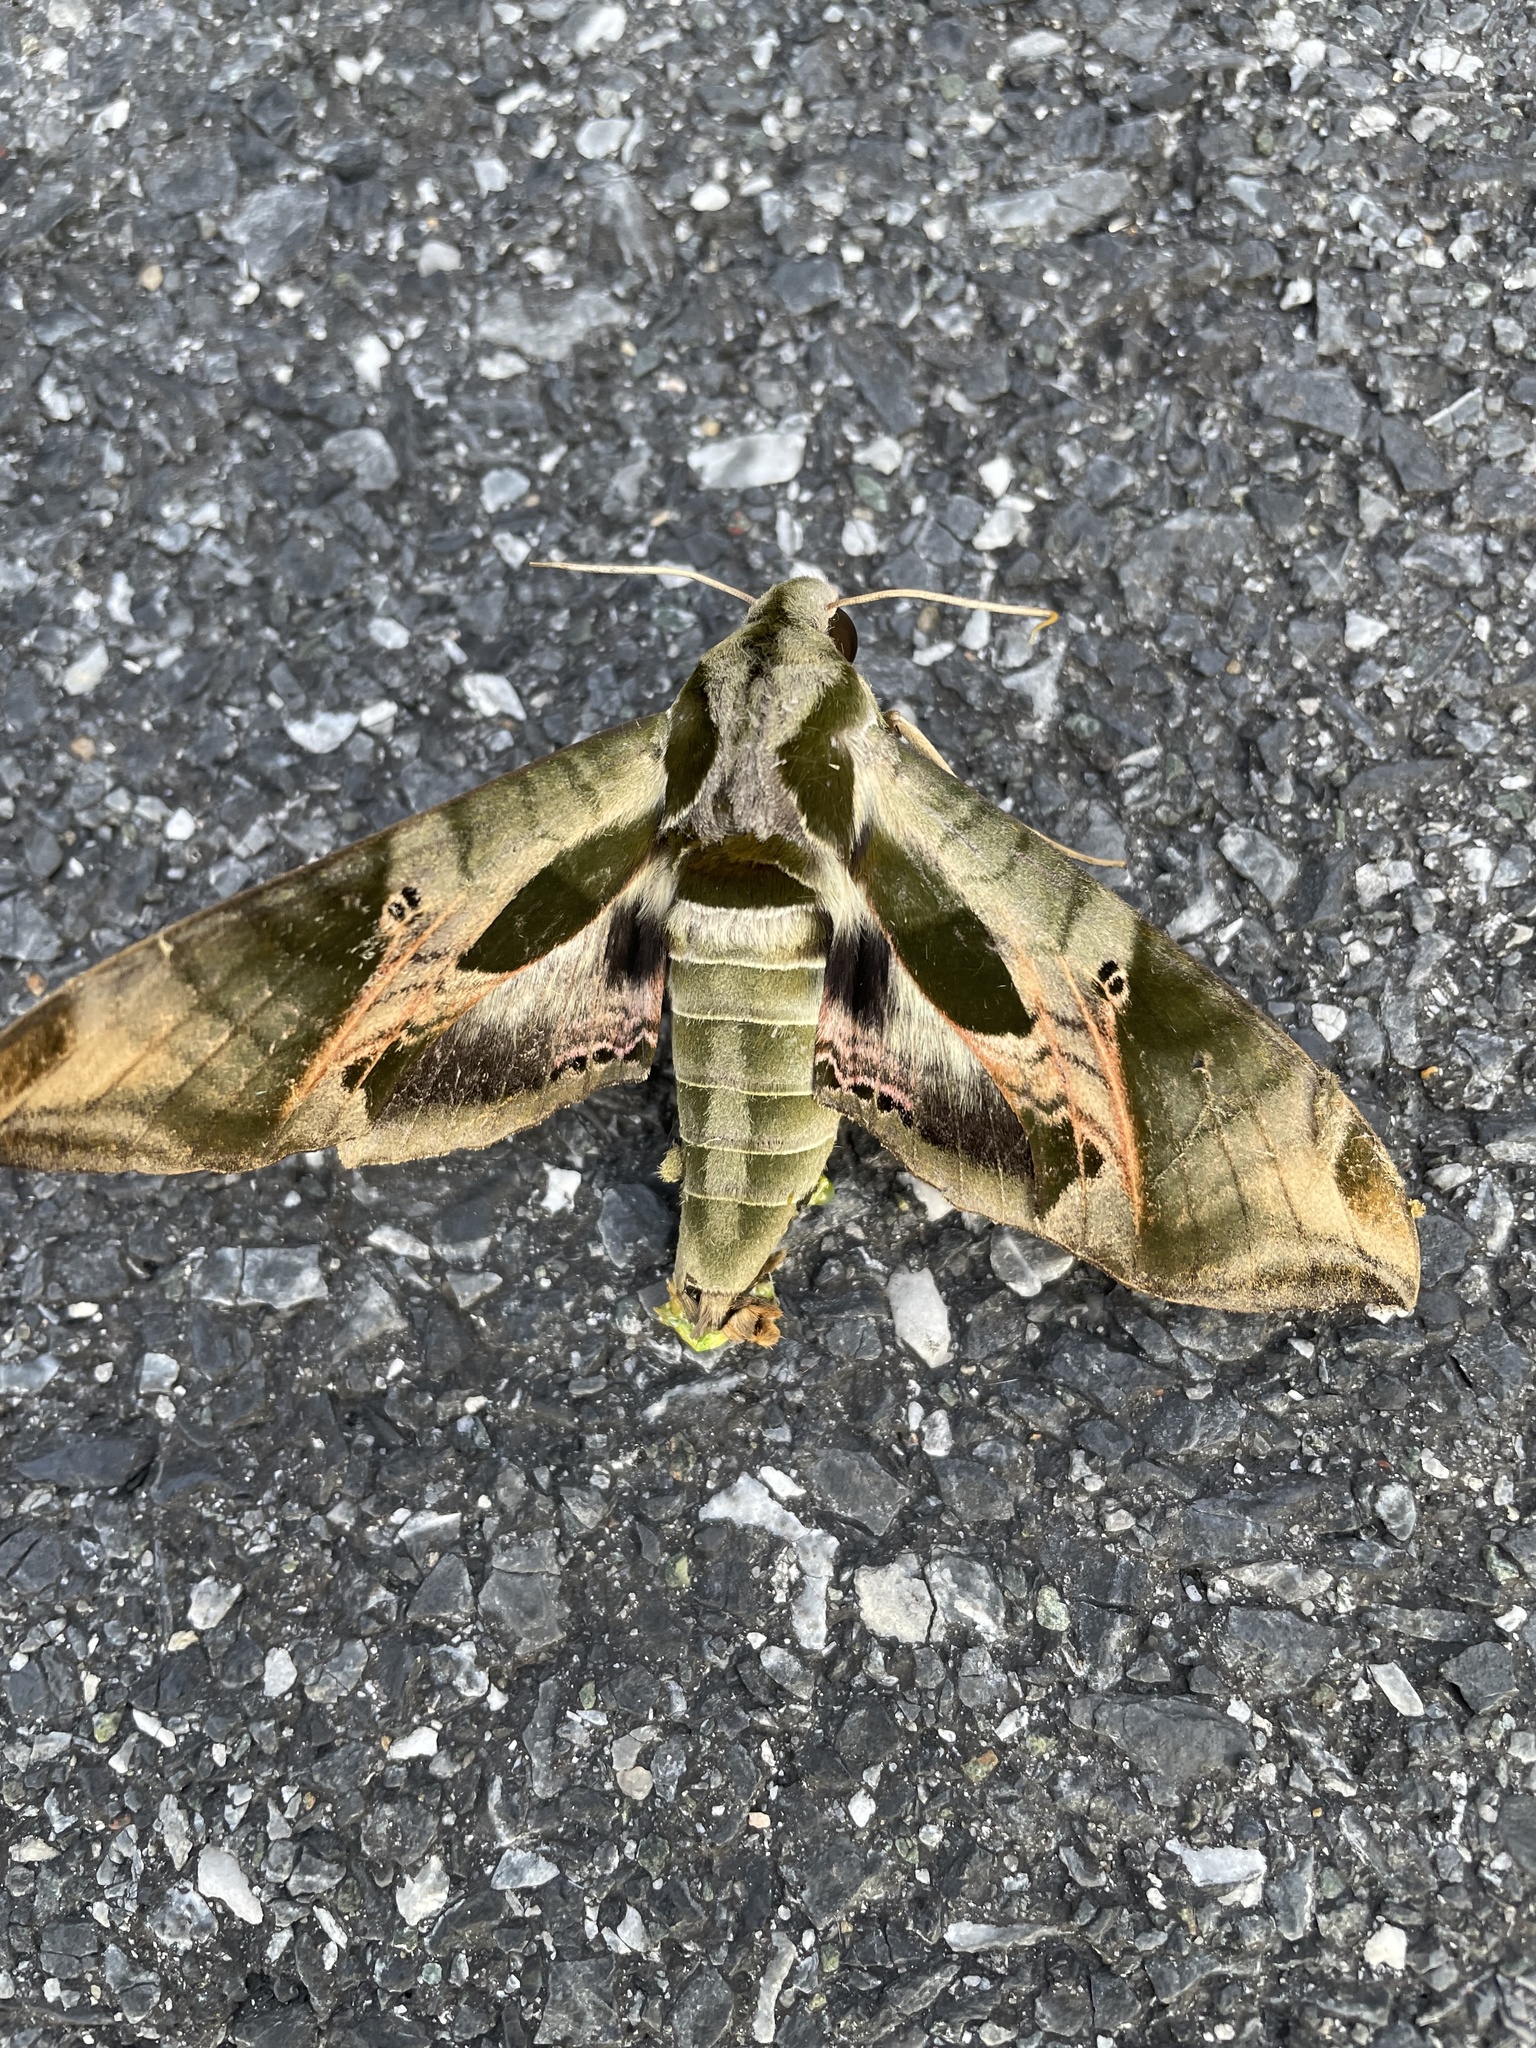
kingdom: Animalia
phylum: Arthropoda
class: Insecta
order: Lepidoptera
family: Sphingidae
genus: Eumorpha
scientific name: Eumorpha pandorus
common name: Pandora sphinx
